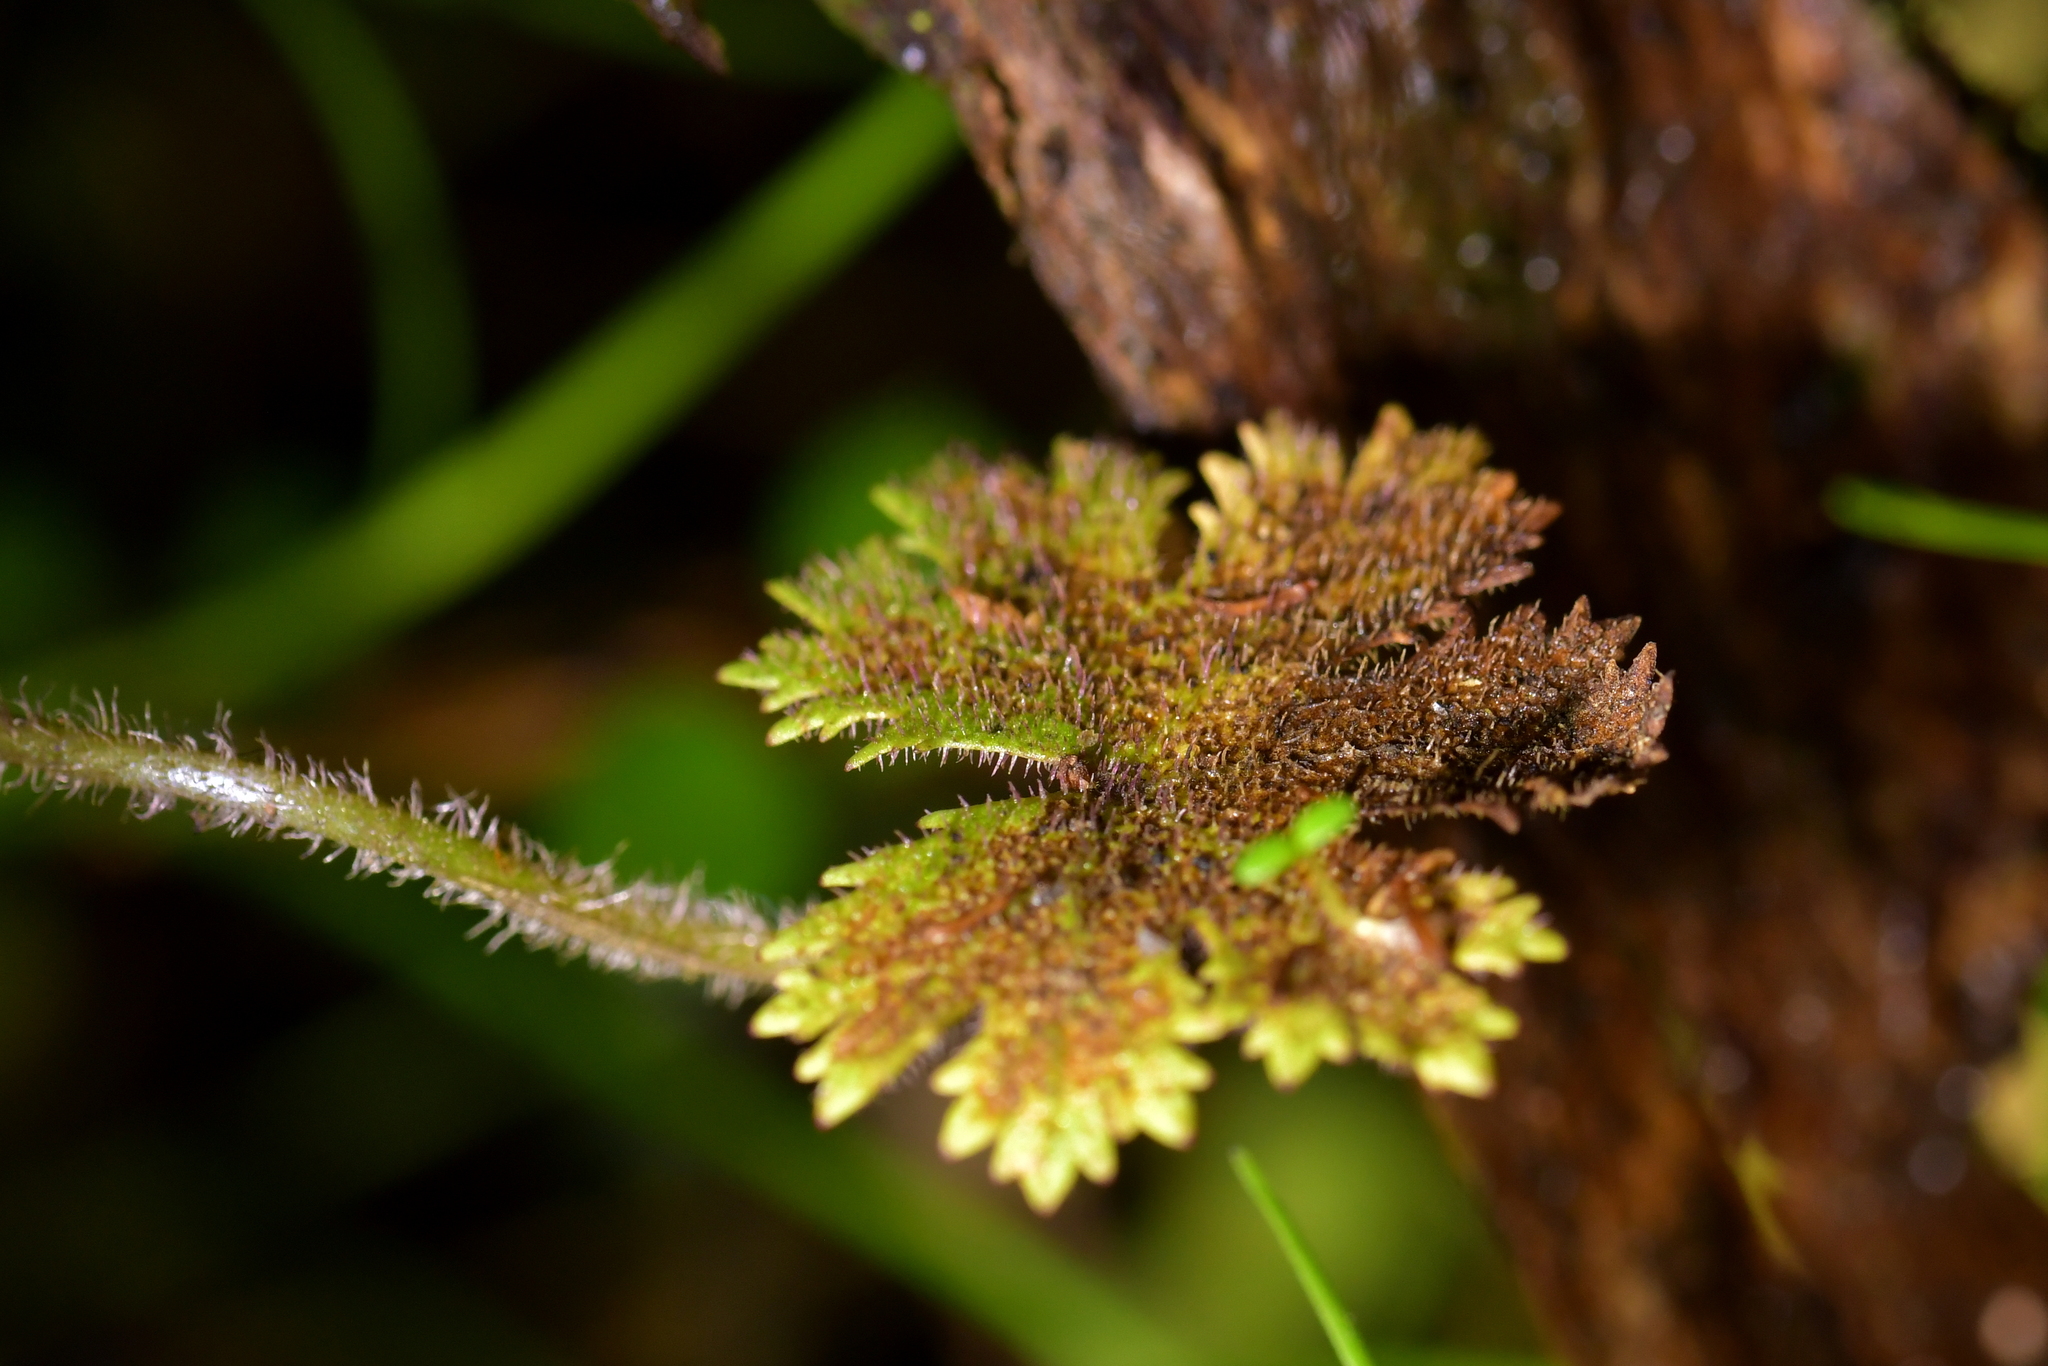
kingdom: Plantae
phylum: Tracheophyta
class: Magnoliopsida
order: Apiales
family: Araliaceae
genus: Hydrocotyle
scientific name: Hydrocotyle elongata
